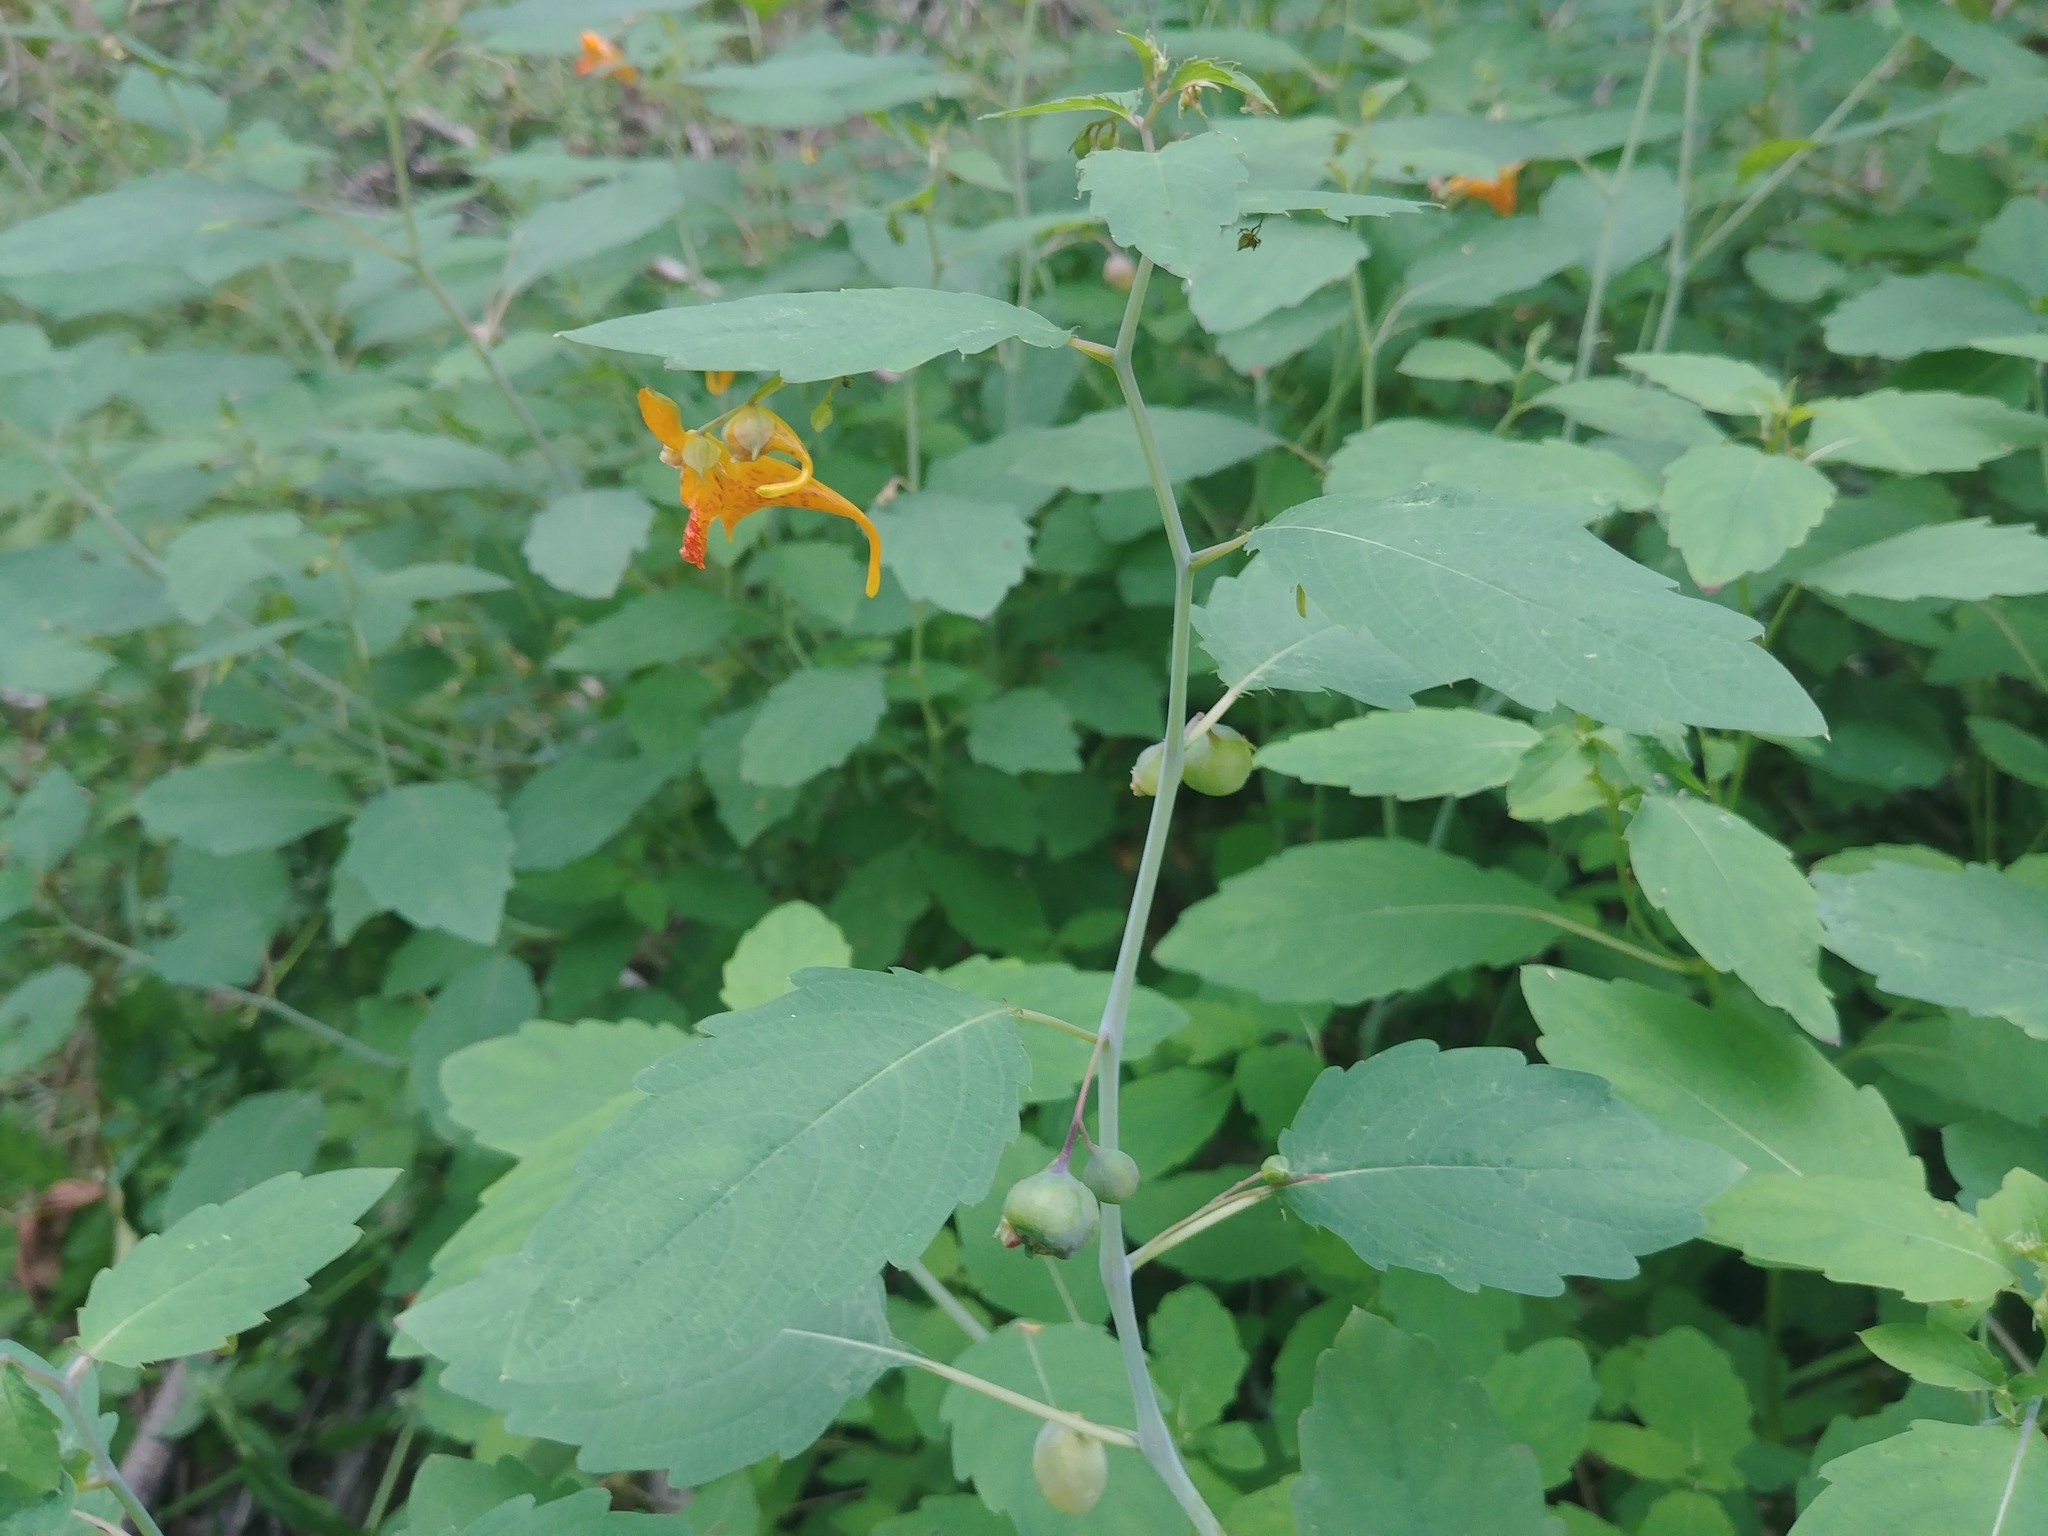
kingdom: Plantae
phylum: Tracheophyta
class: Magnoliopsida
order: Ericales
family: Balsaminaceae
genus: Impatiens
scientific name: Impatiens capensis
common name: Orange balsam
